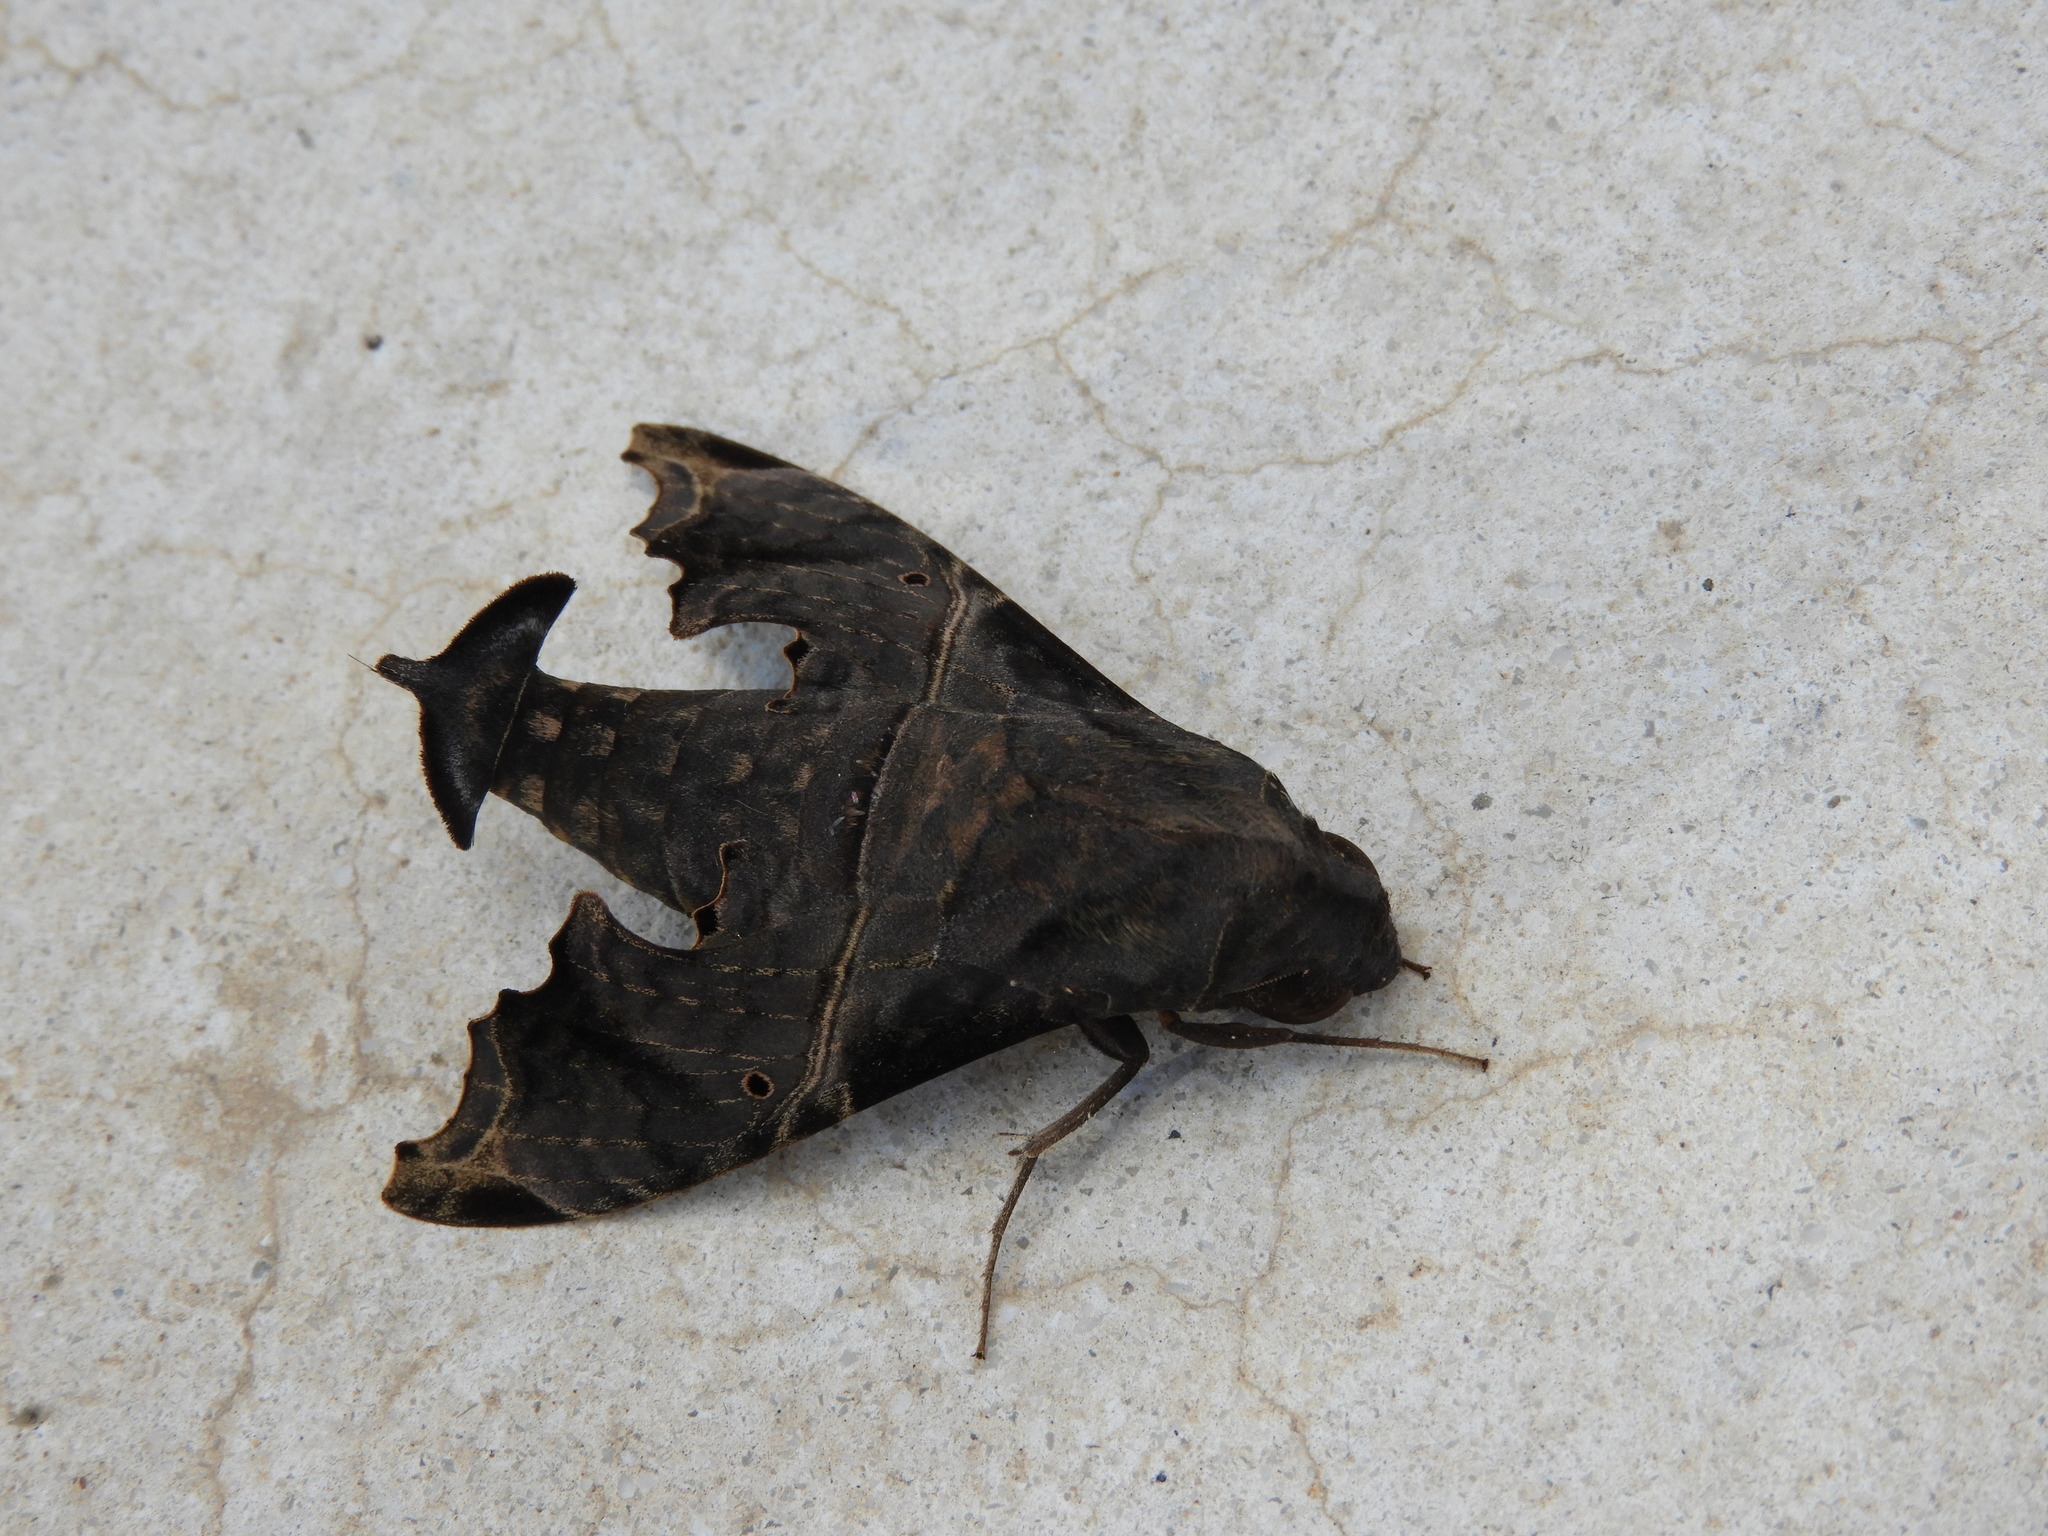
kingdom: Animalia
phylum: Arthropoda
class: Insecta
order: Lepidoptera
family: Sphingidae
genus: Enyo
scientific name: Enyo lugubris
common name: Mournful sphinx
